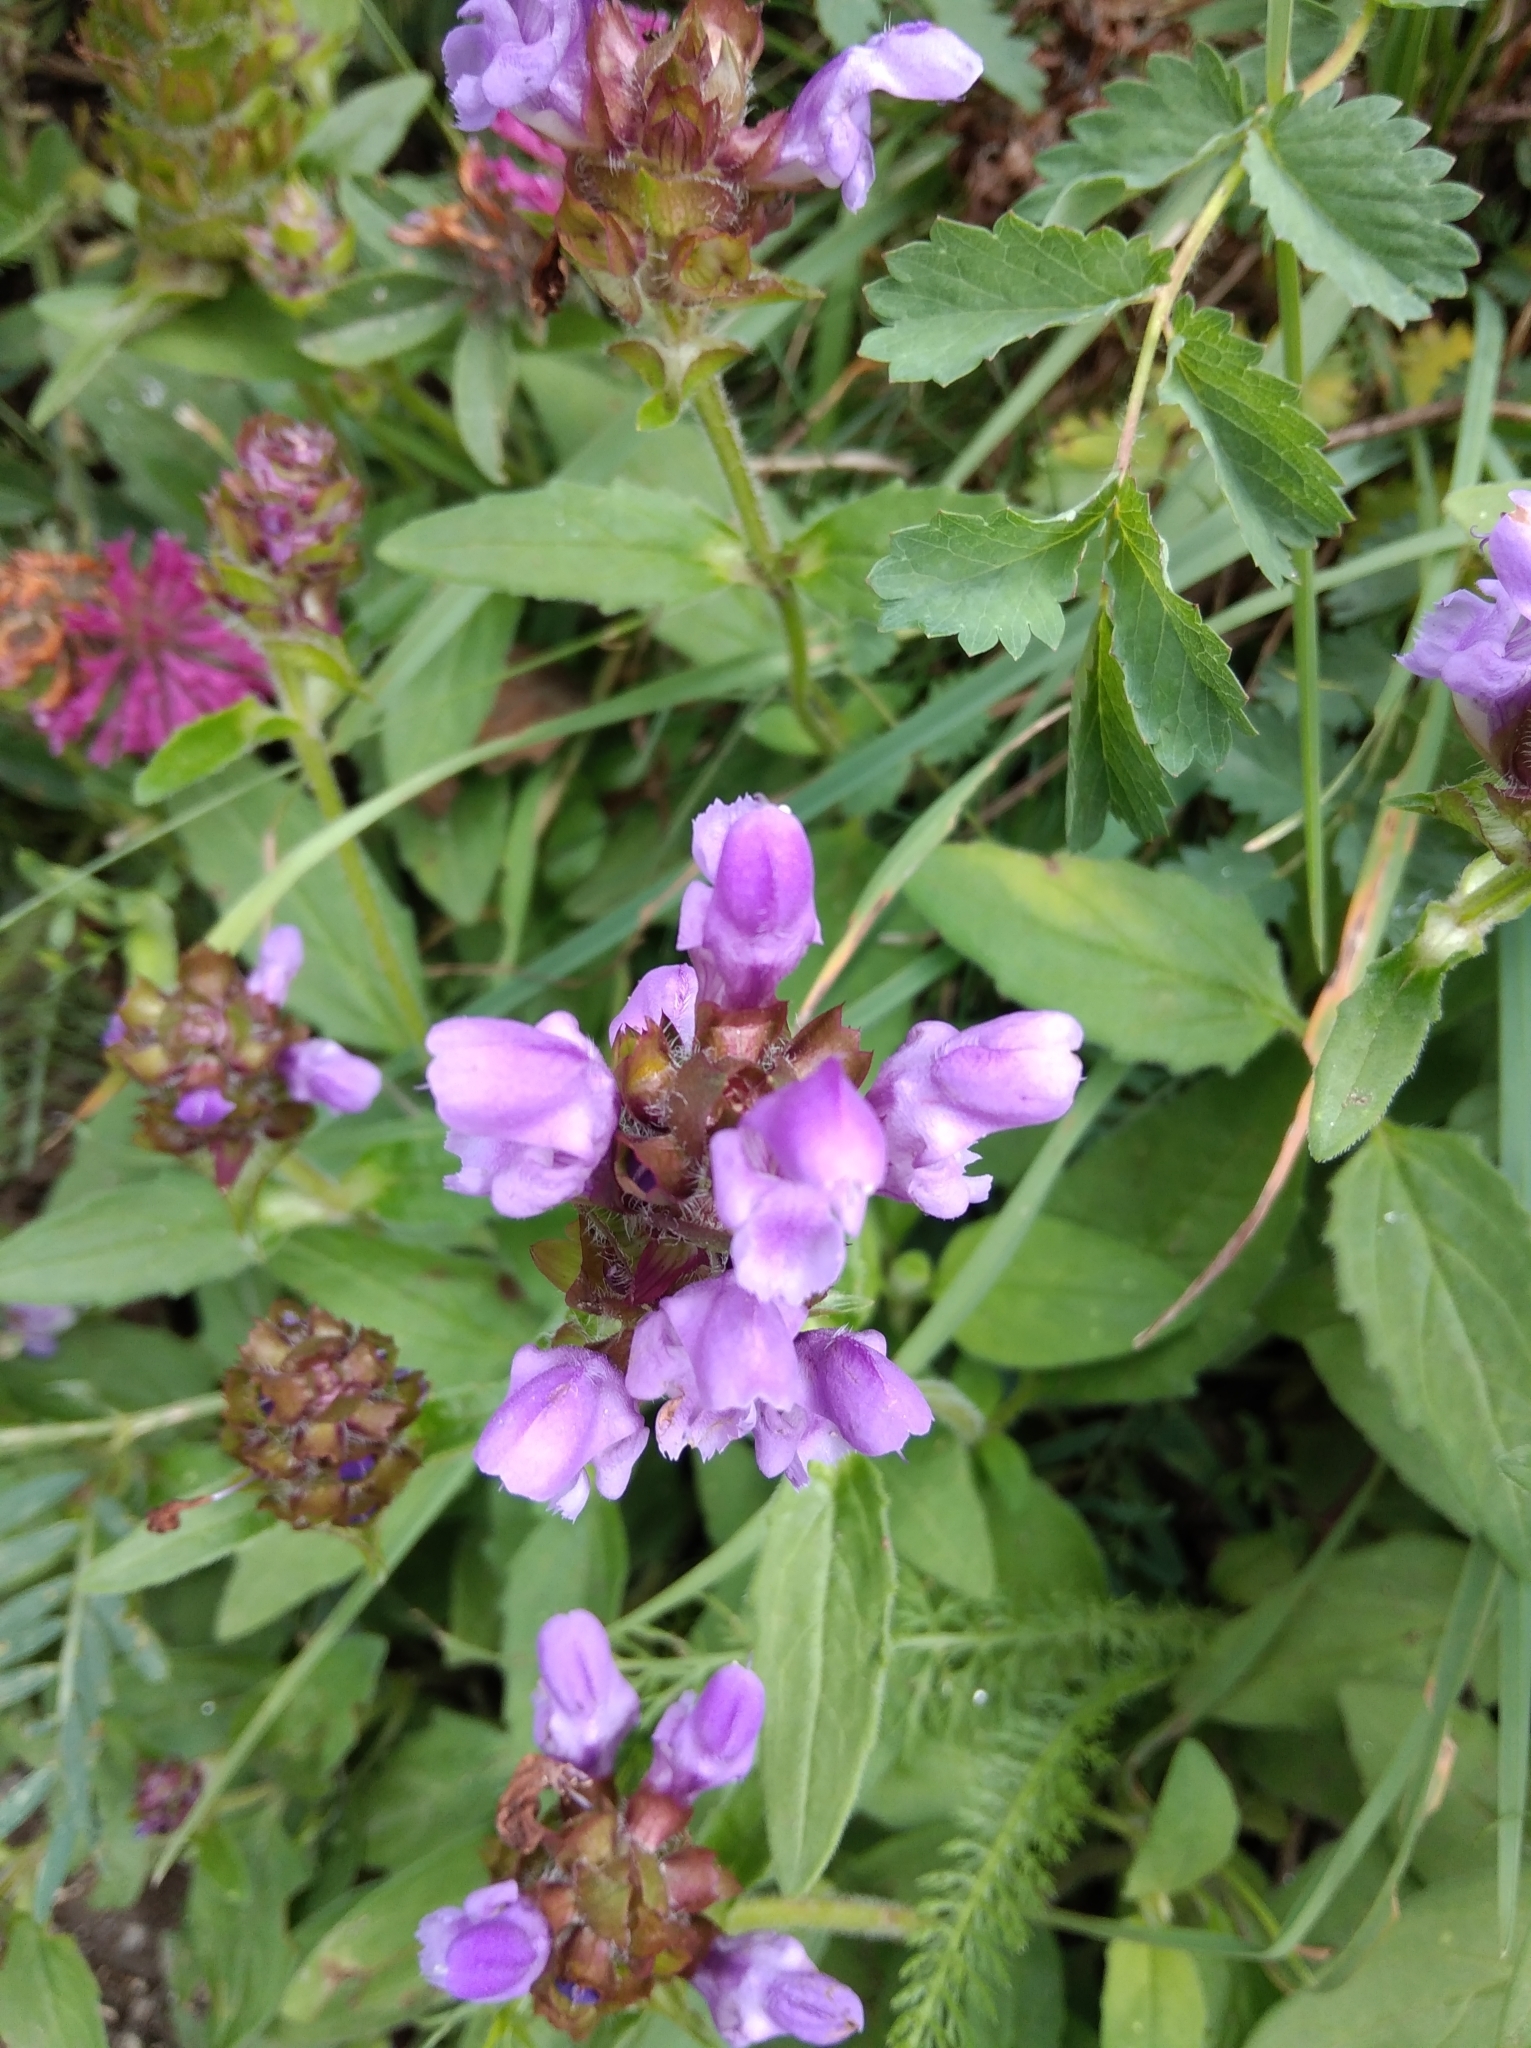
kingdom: Plantae
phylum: Tracheophyta
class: Magnoliopsida
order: Lamiales
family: Lamiaceae
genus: Prunella
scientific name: Prunella vulgaris
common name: Heal-all
